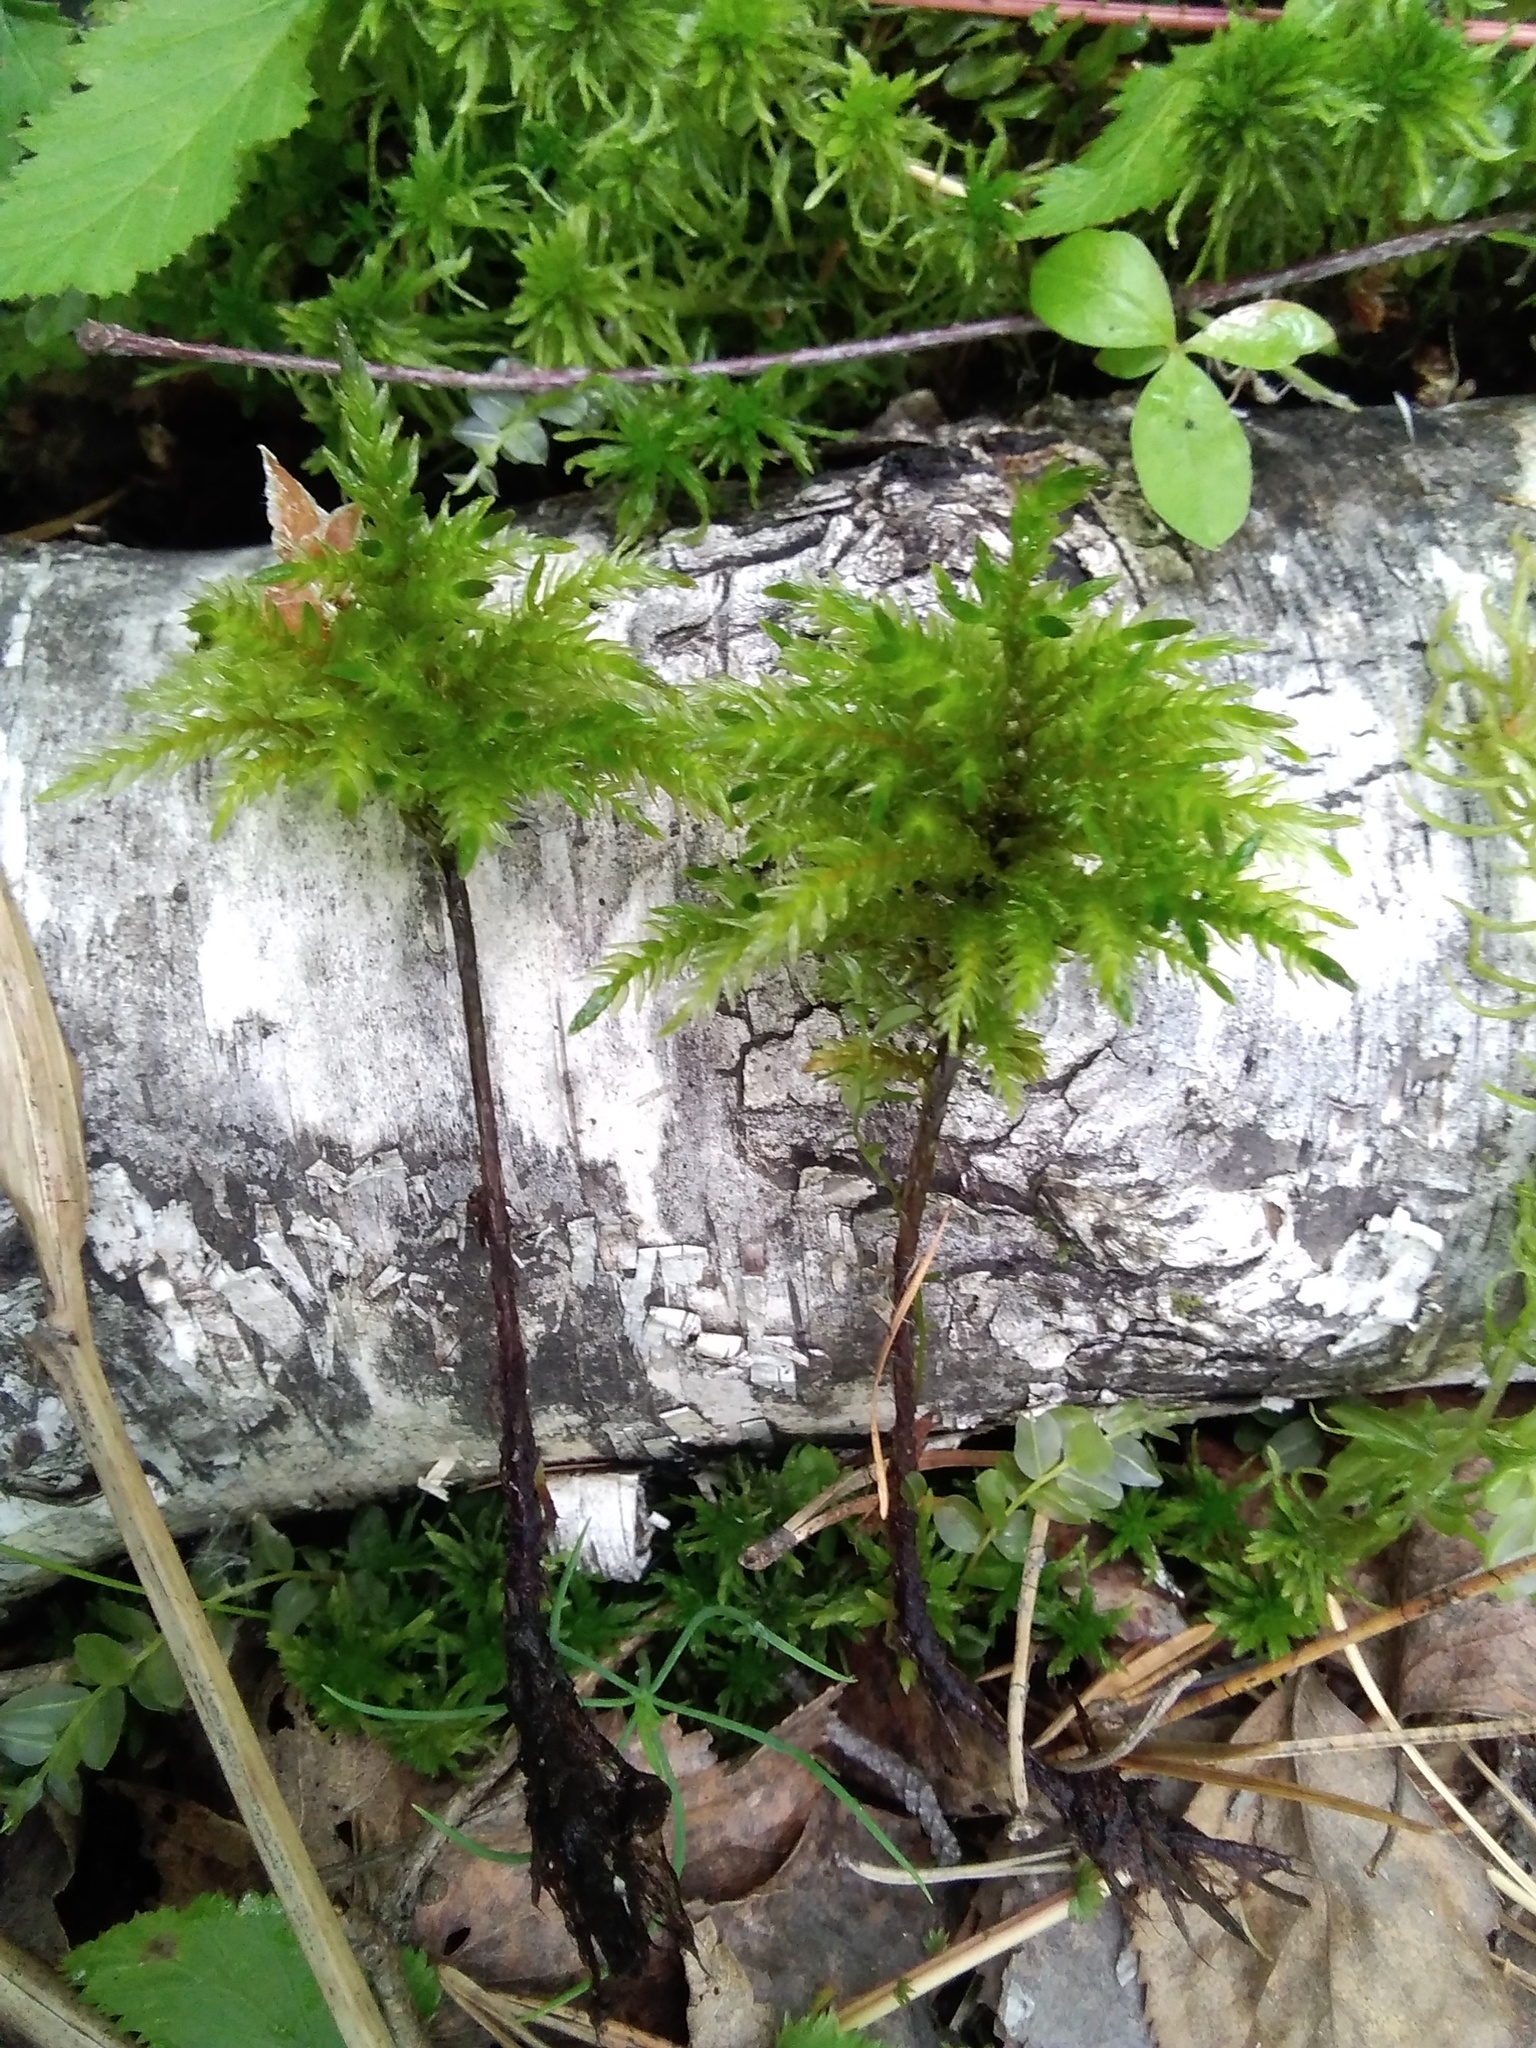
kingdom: Plantae
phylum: Bryophyta
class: Bryopsida
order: Hypnales
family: Climaciaceae
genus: Climacium
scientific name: Climacium dendroides
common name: Northern tree moss
